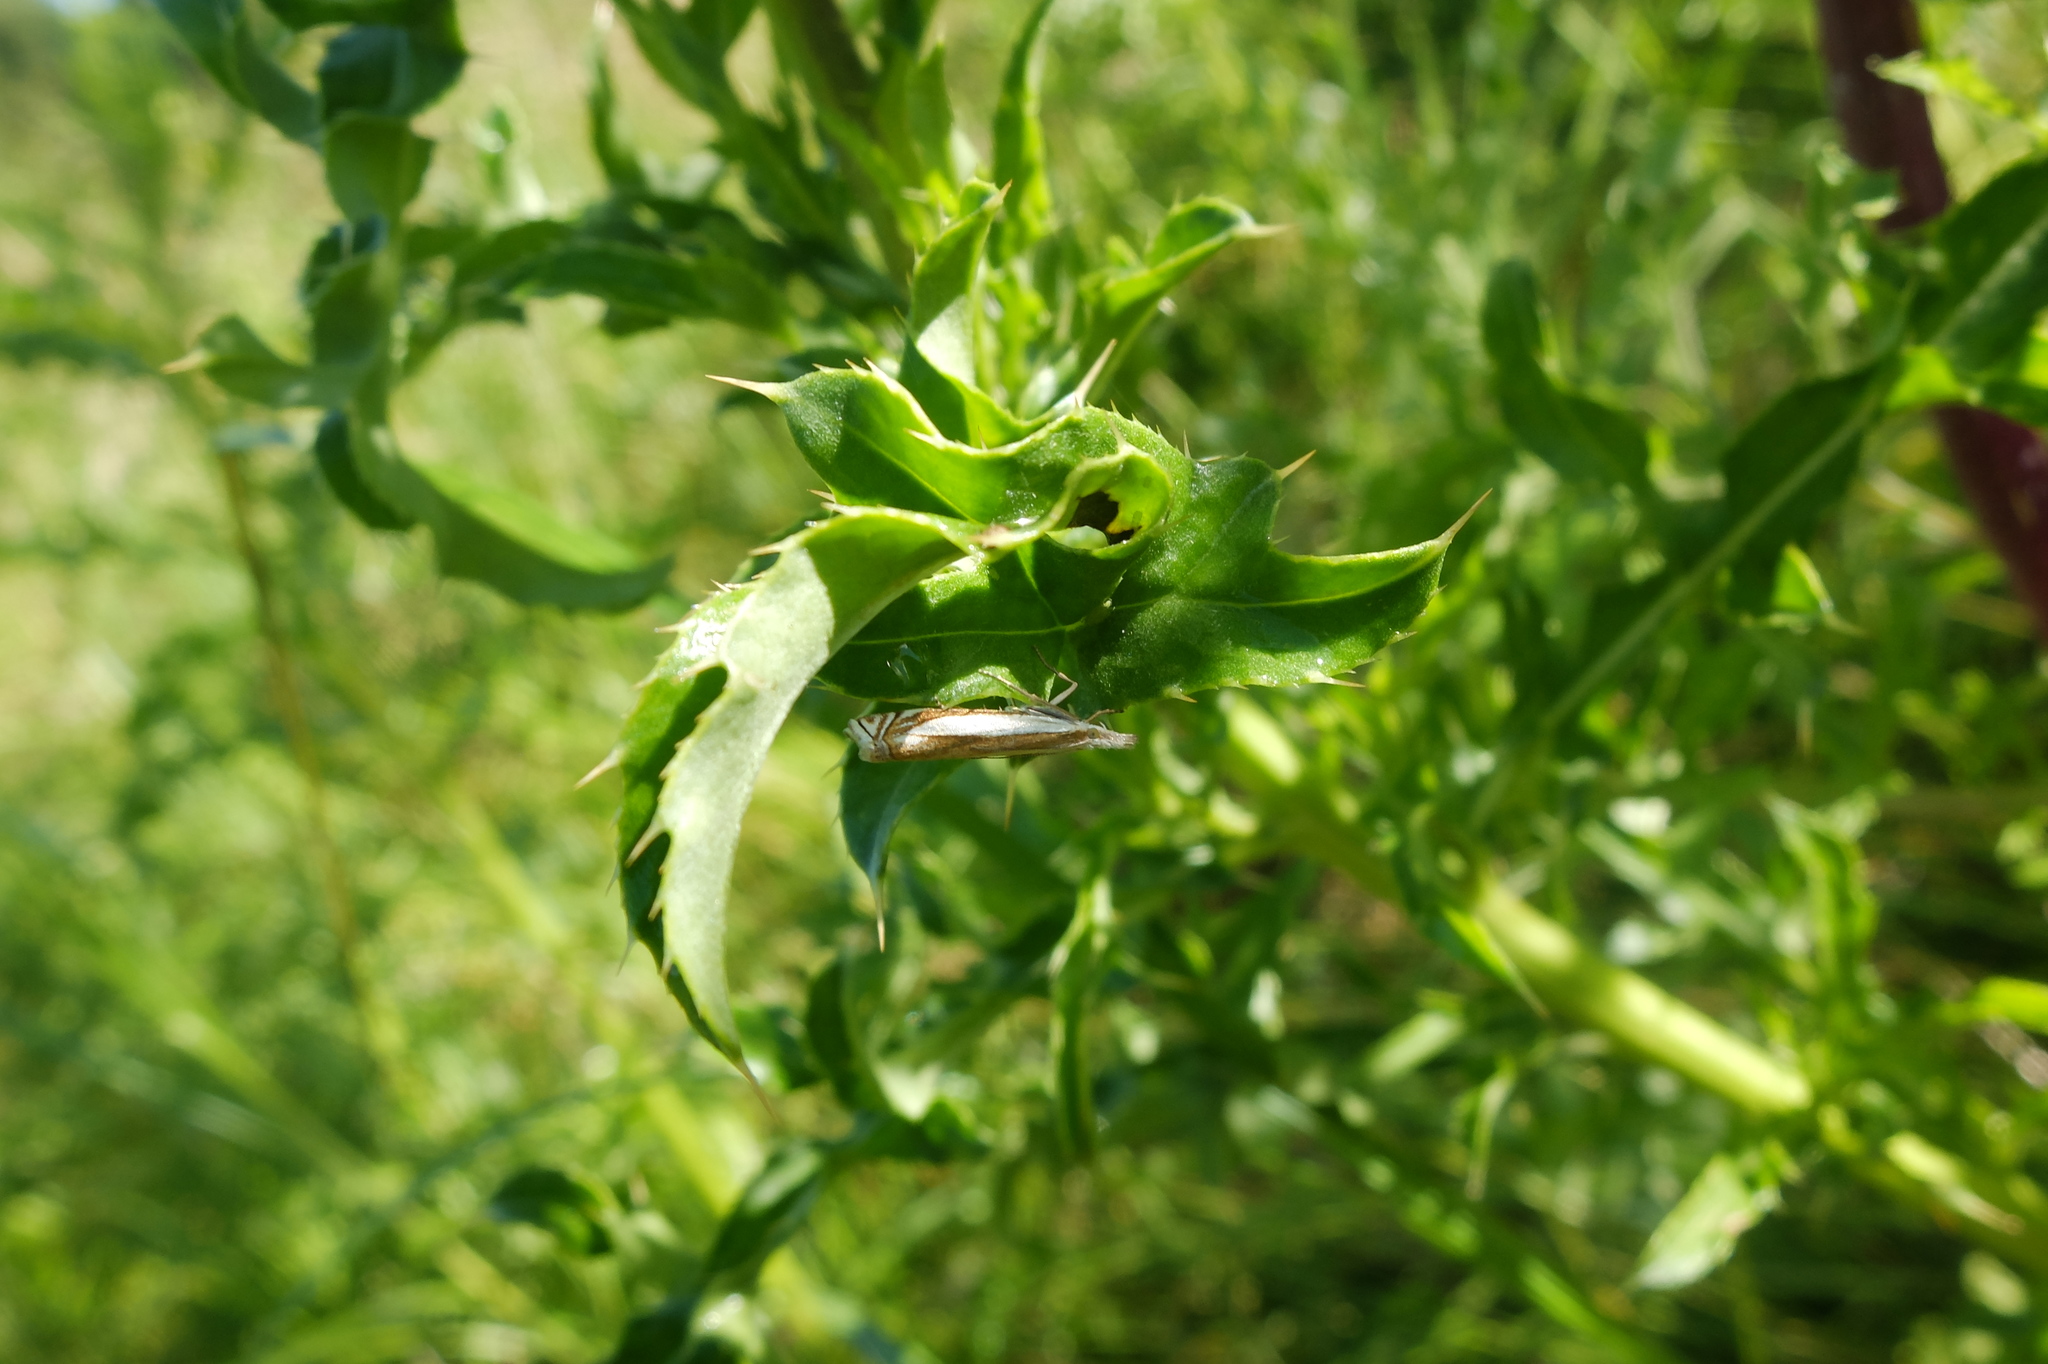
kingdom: Animalia
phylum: Arthropoda
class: Insecta
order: Lepidoptera
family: Crambidae
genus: Crambus
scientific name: Crambus pascuella
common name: Inlaid grass-veneer
